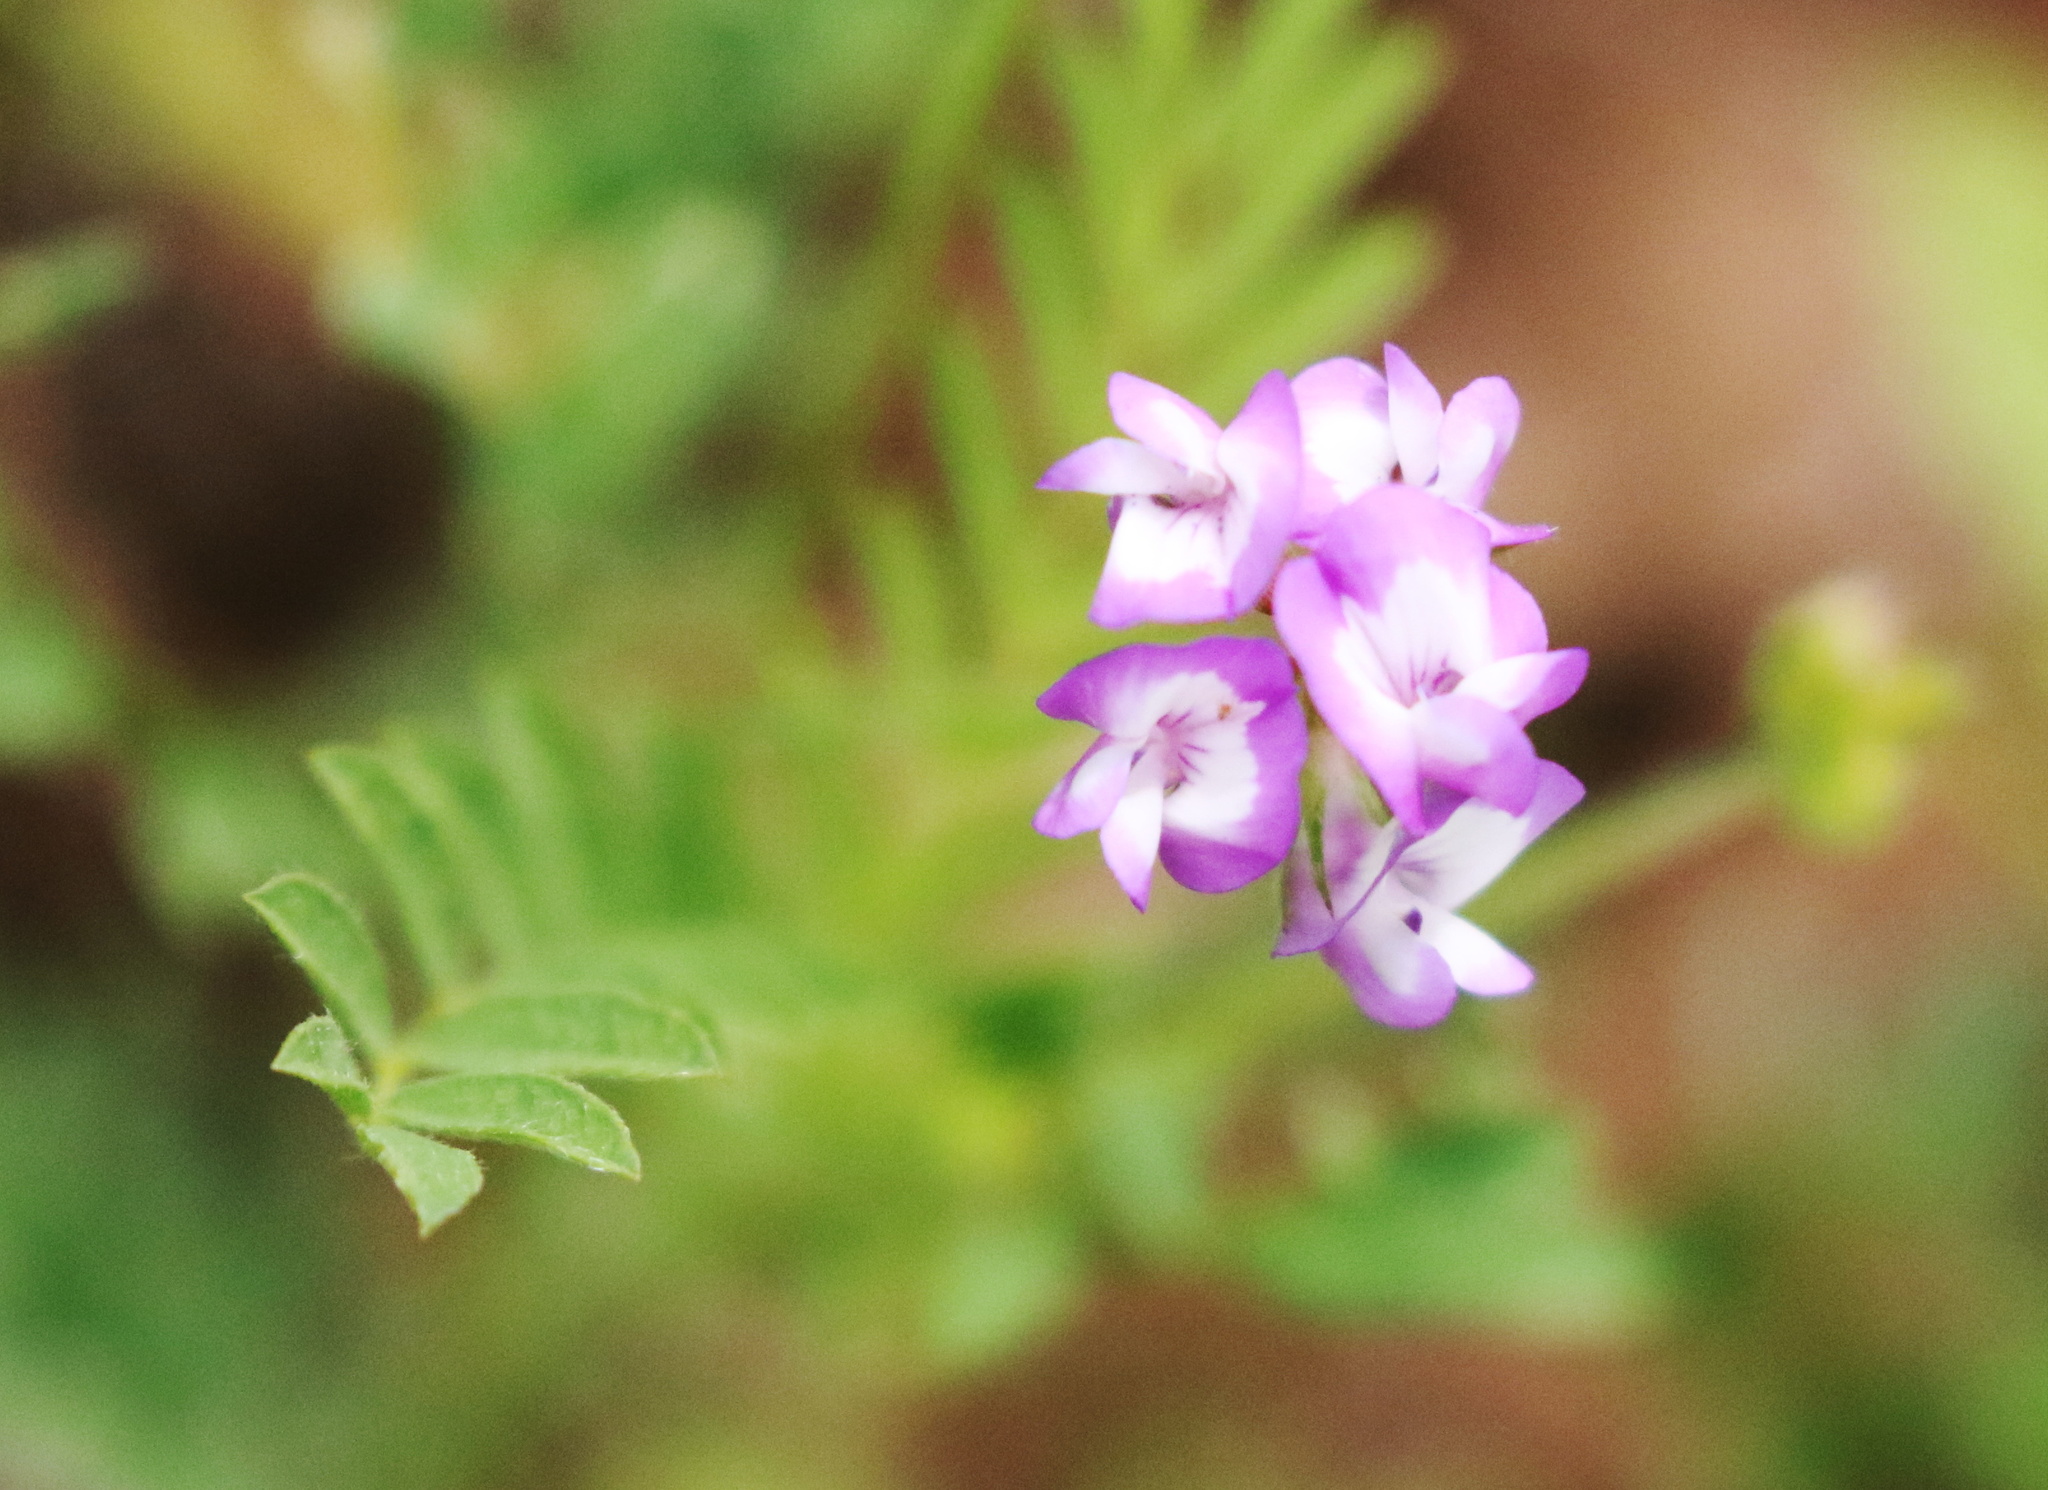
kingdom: Plantae
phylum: Tracheophyta
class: Magnoliopsida
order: Fabales
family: Fabaceae
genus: Astragalus
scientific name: Astragalus nuttallianus
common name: Smallflowered milkvetch
